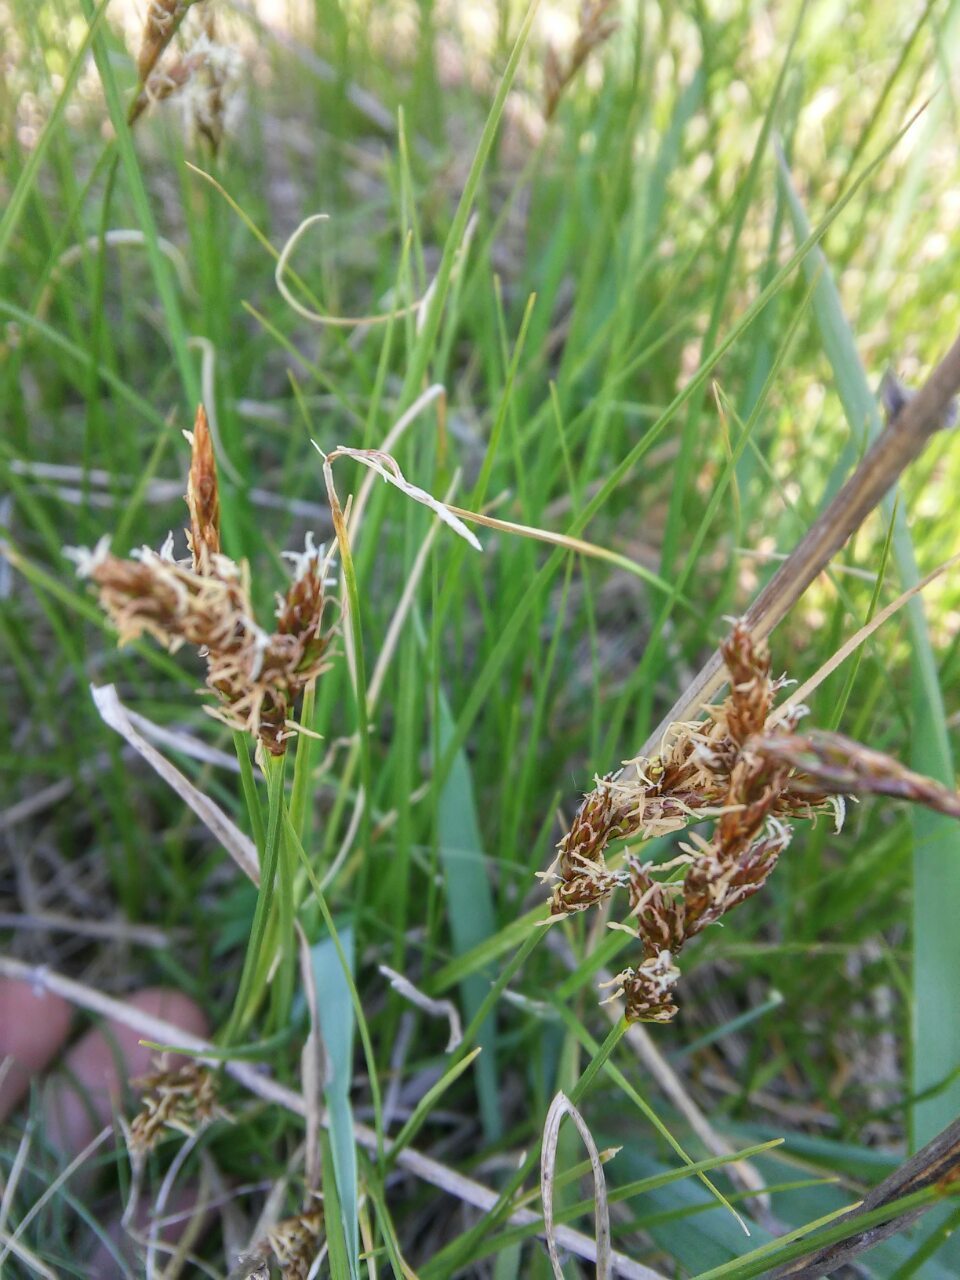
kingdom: Plantae
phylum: Tracheophyta
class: Liliopsida
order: Poales
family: Cyperaceae
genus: Carex
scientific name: Carex praecox
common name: Early sedge
